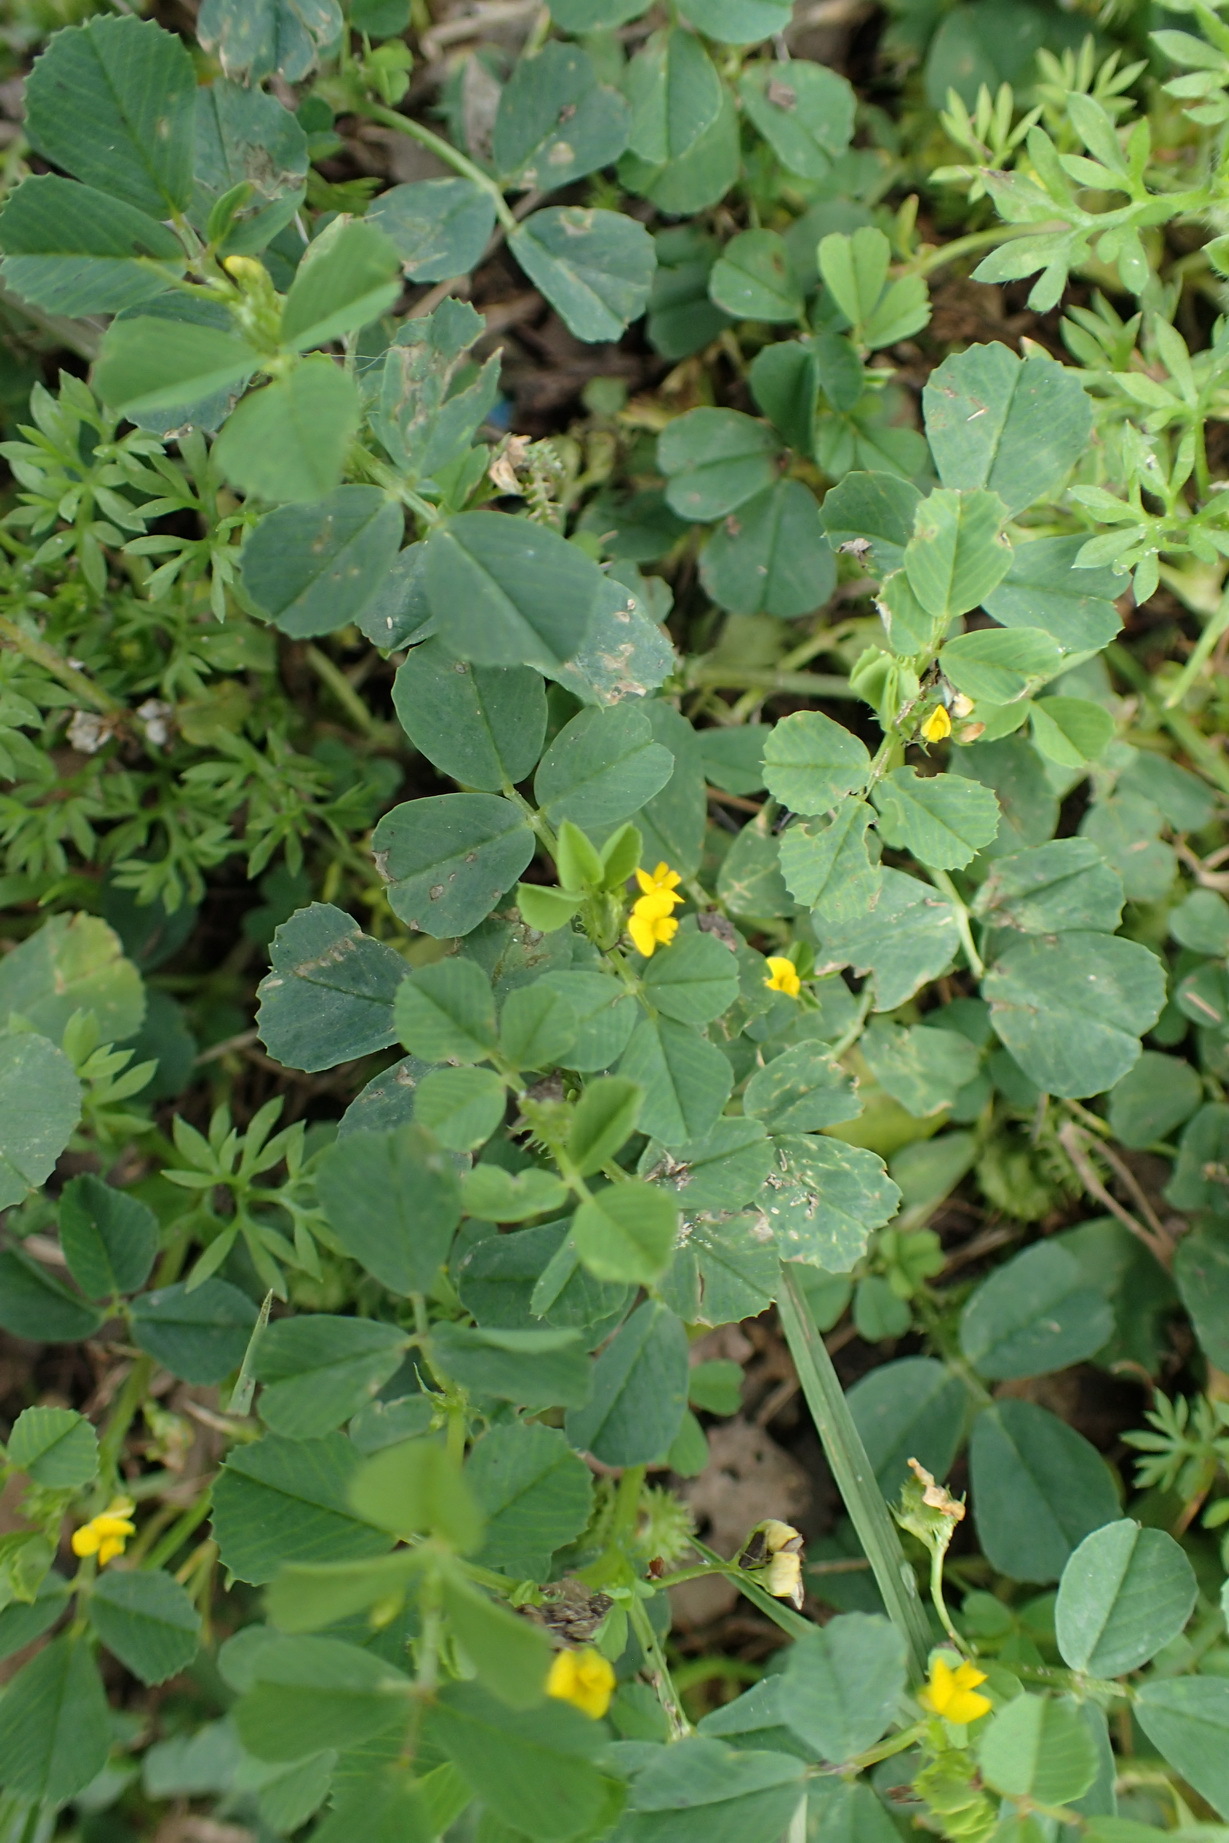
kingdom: Plantae
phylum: Tracheophyta
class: Magnoliopsida
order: Fabales
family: Fabaceae
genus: Medicago
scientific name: Medicago polymorpha
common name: Burclover
